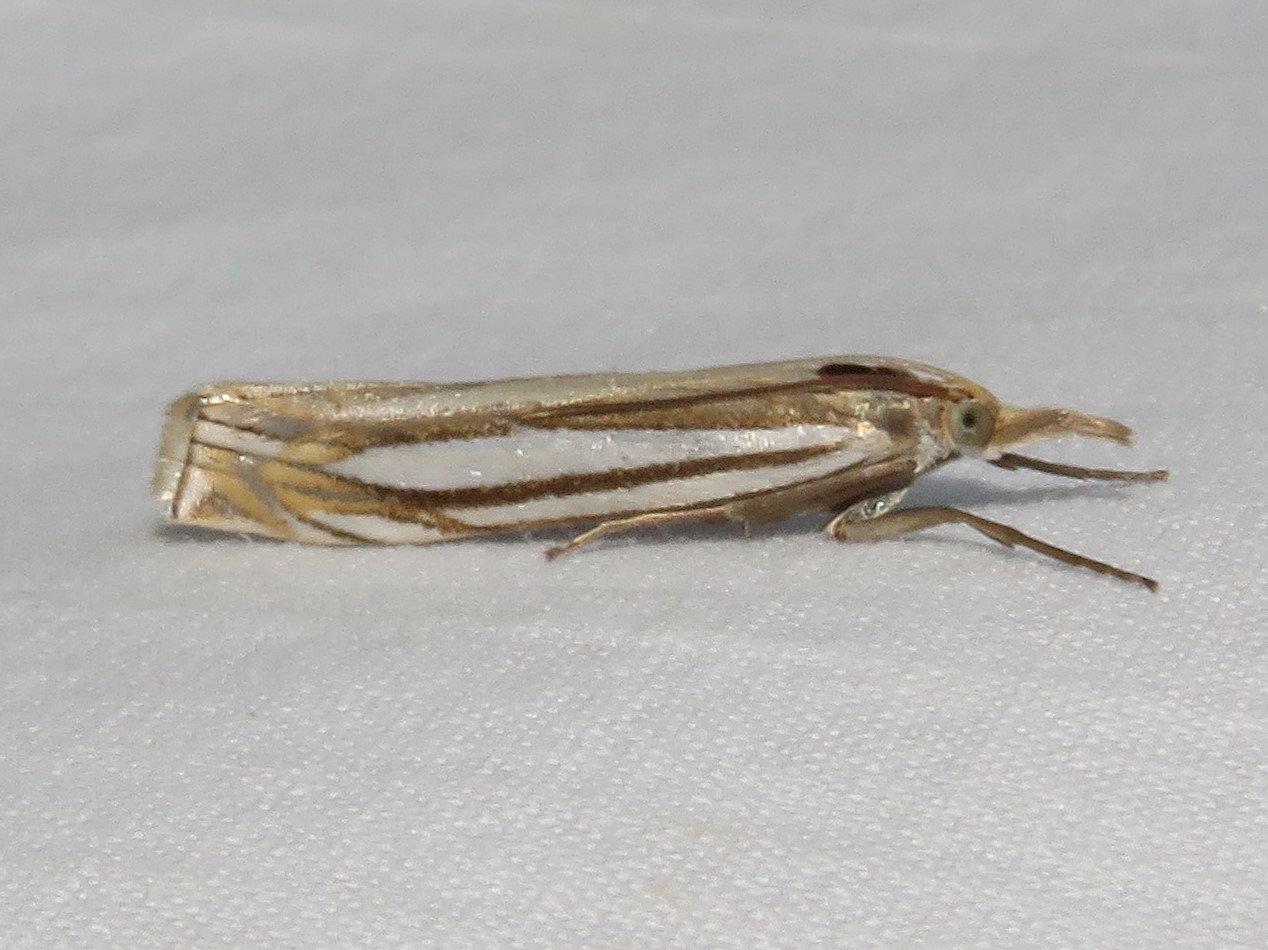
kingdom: Animalia
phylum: Arthropoda
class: Insecta
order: Lepidoptera
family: Crambidae
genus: Crambus
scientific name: Crambus laqueatellus
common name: Eastern grass-veneer
